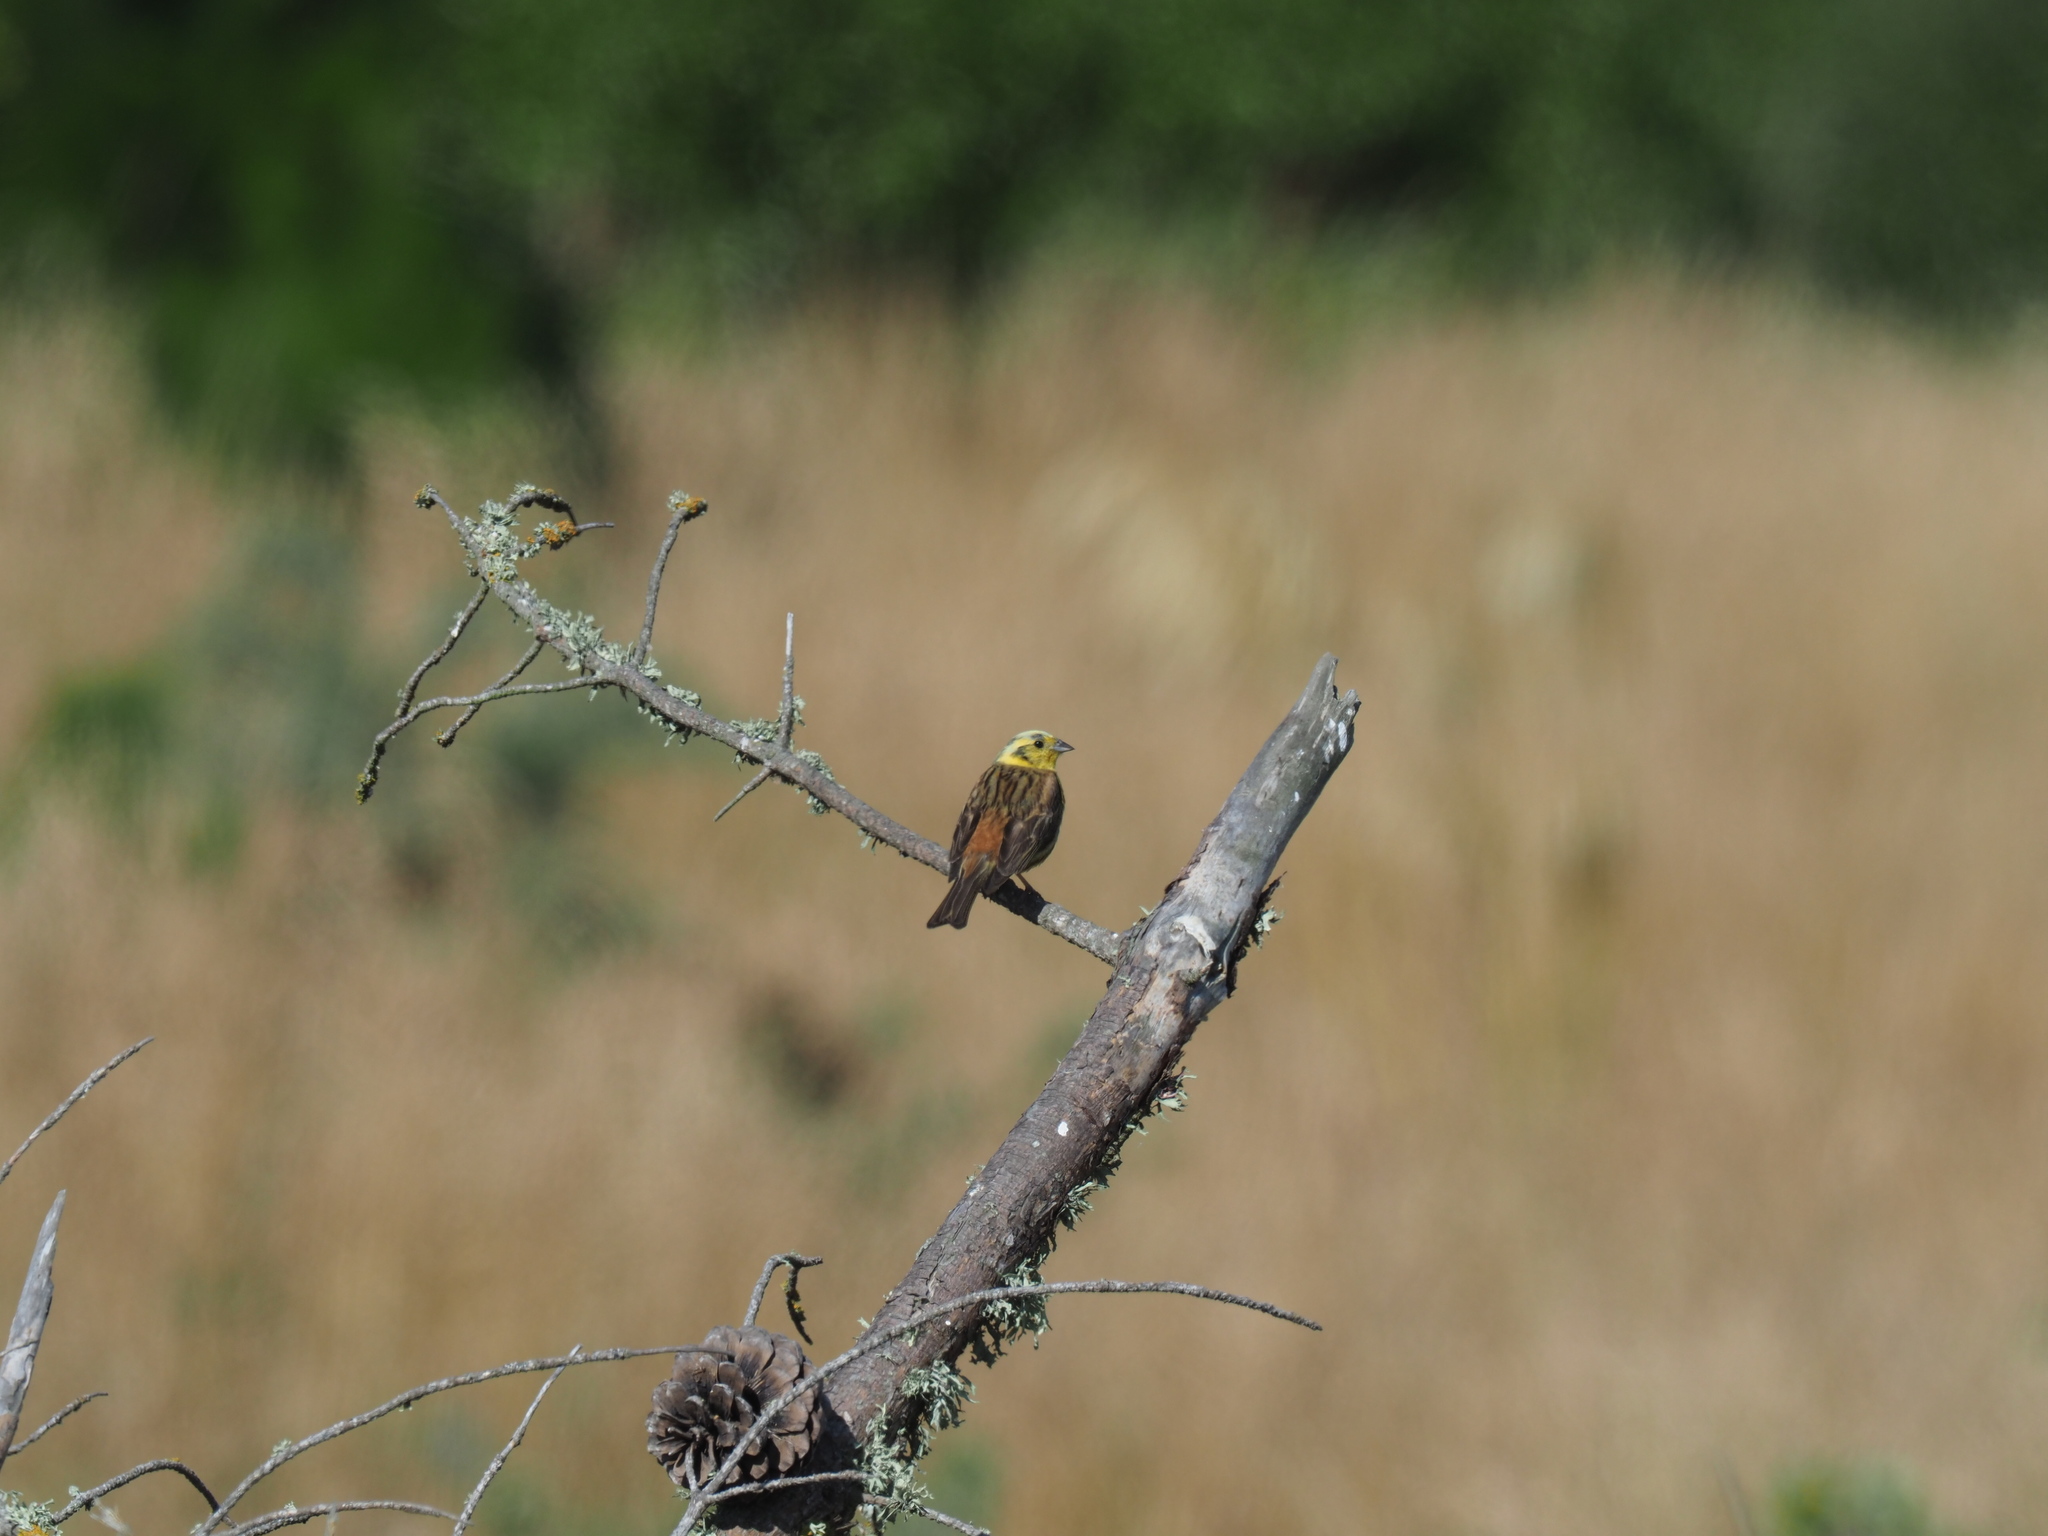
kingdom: Animalia
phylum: Chordata
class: Aves
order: Passeriformes
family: Emberizidae
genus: Emberiza
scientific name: Emberiza citrinella
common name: Yellowhammer
